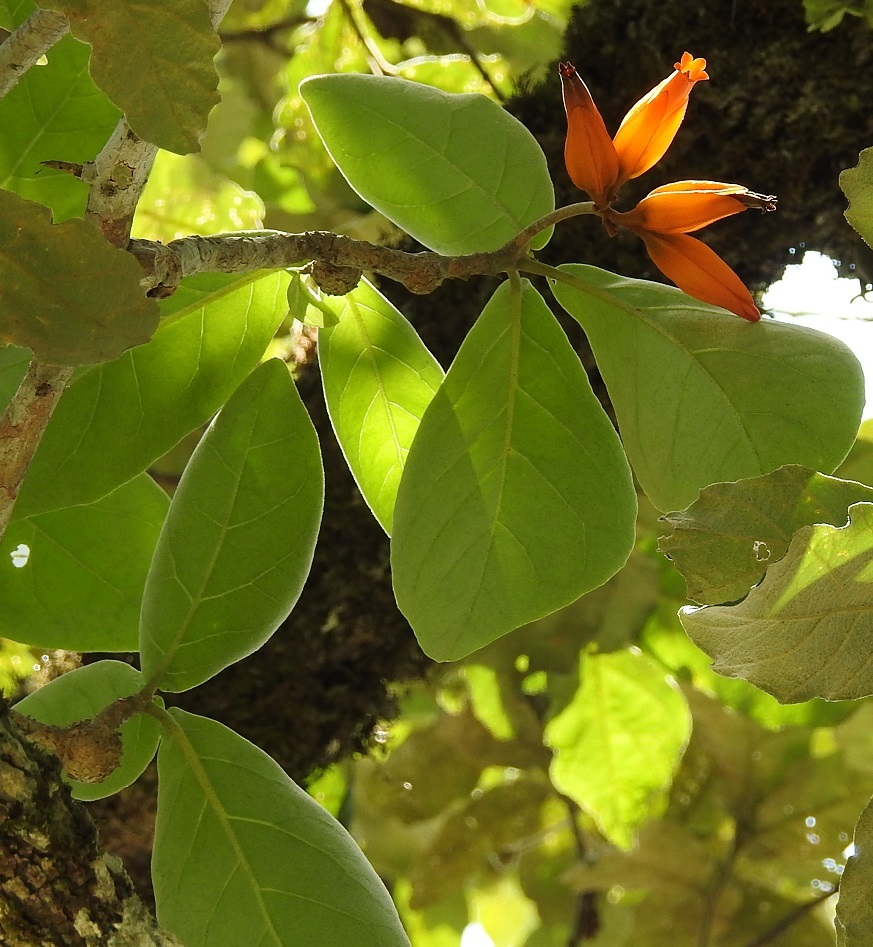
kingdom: Plantae
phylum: Tracheophyta
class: Magnoliopsida
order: Solanales
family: Solanaceae
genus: Juanulloa
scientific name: Juanulloa mexicana
